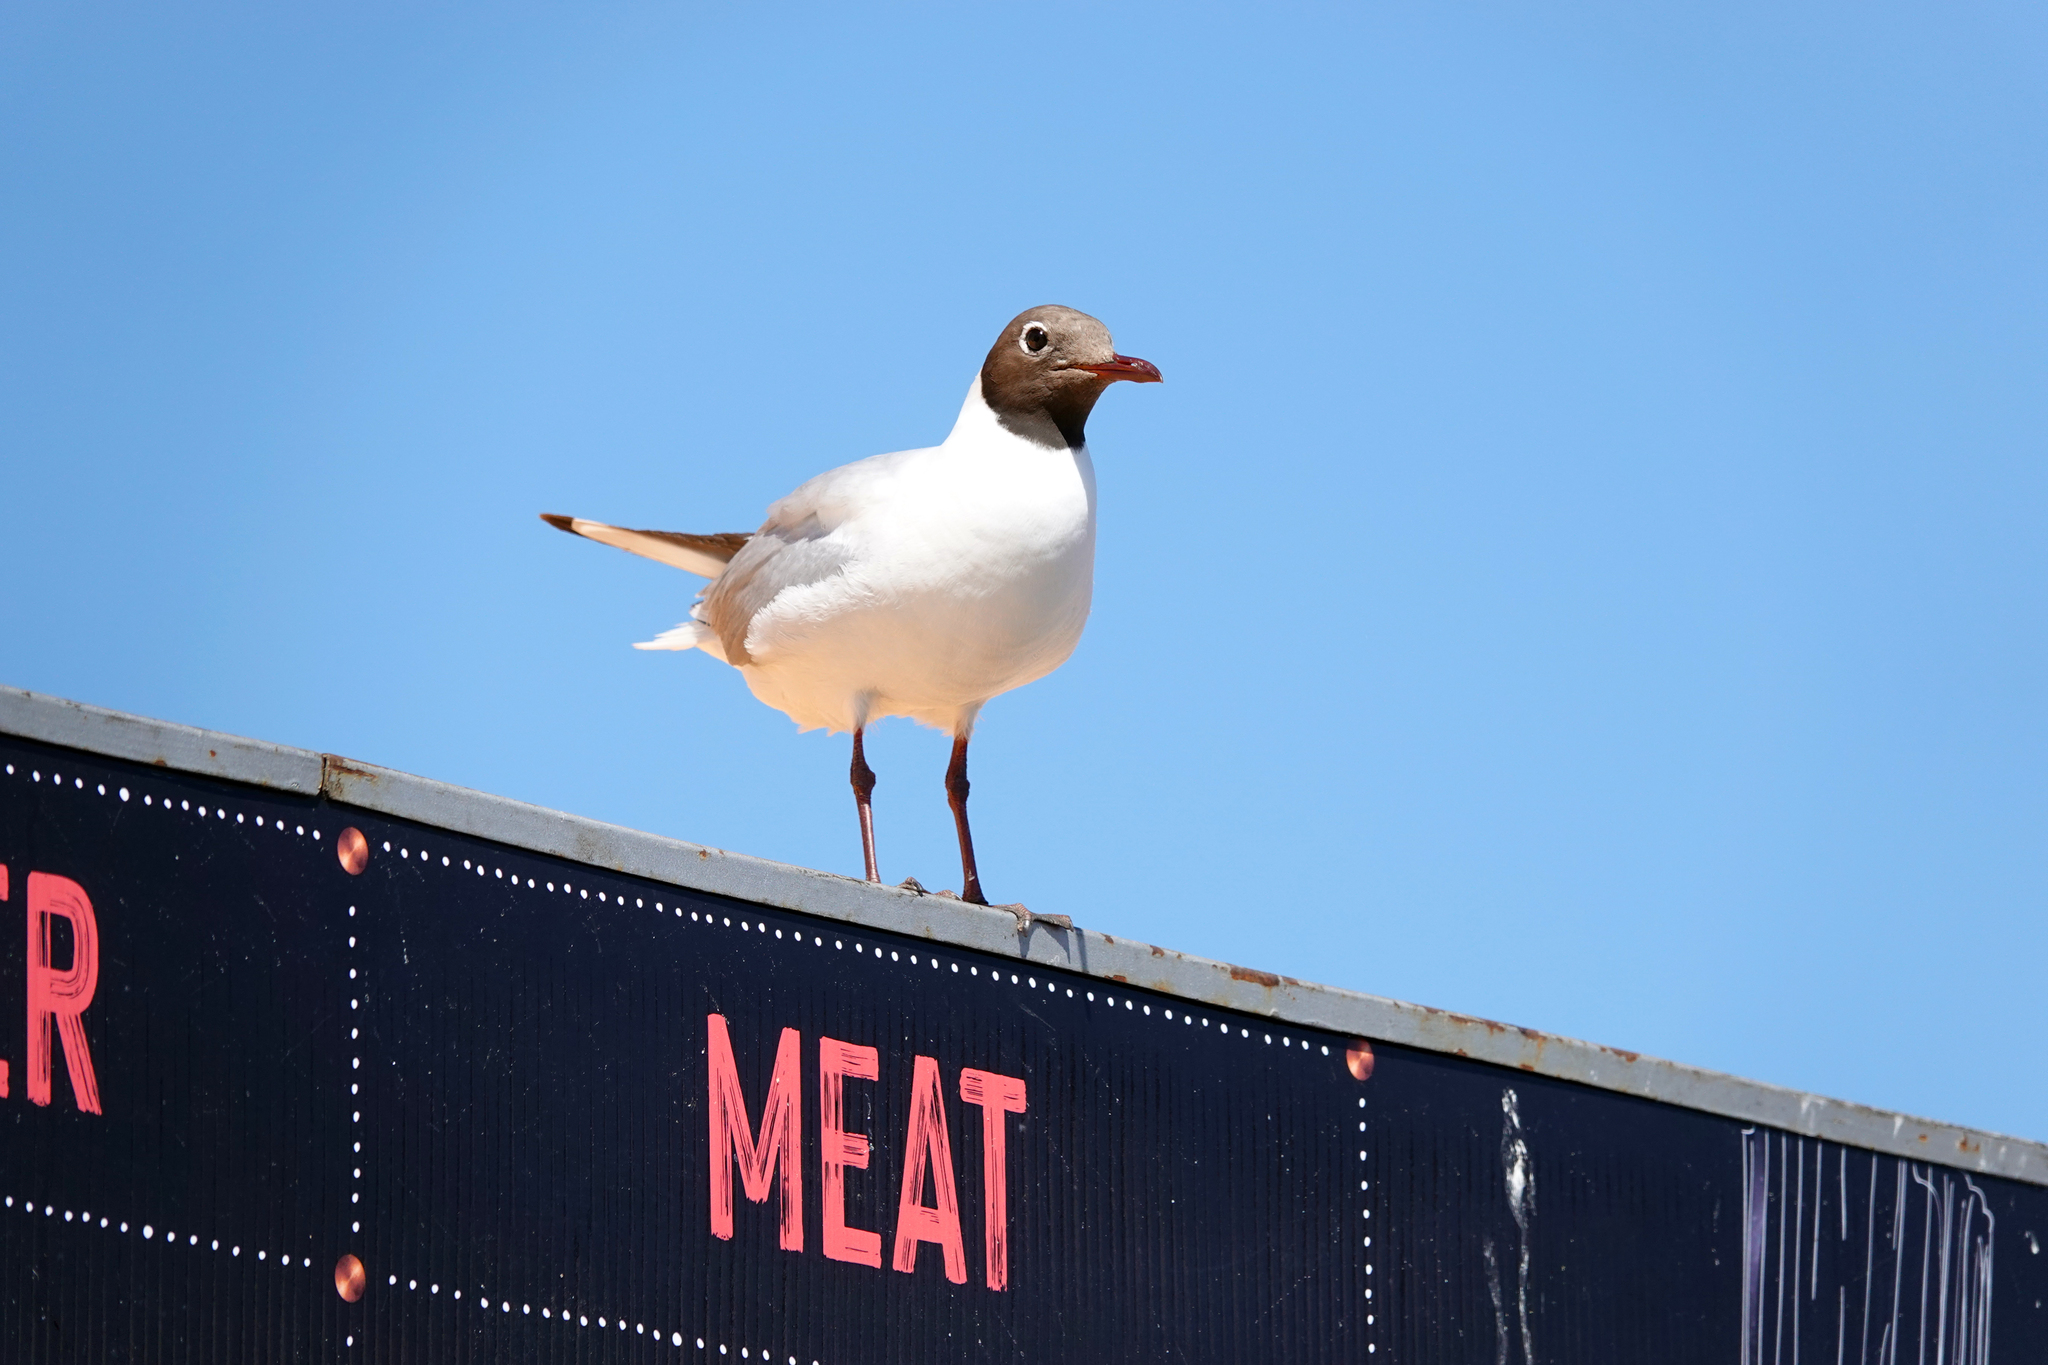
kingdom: Animalia
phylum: Chordata
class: Aves
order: Charadriiformes
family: Laridae
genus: Chroicocephalus
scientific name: Chroicocephalus ridibundus
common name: Black-headed gull
